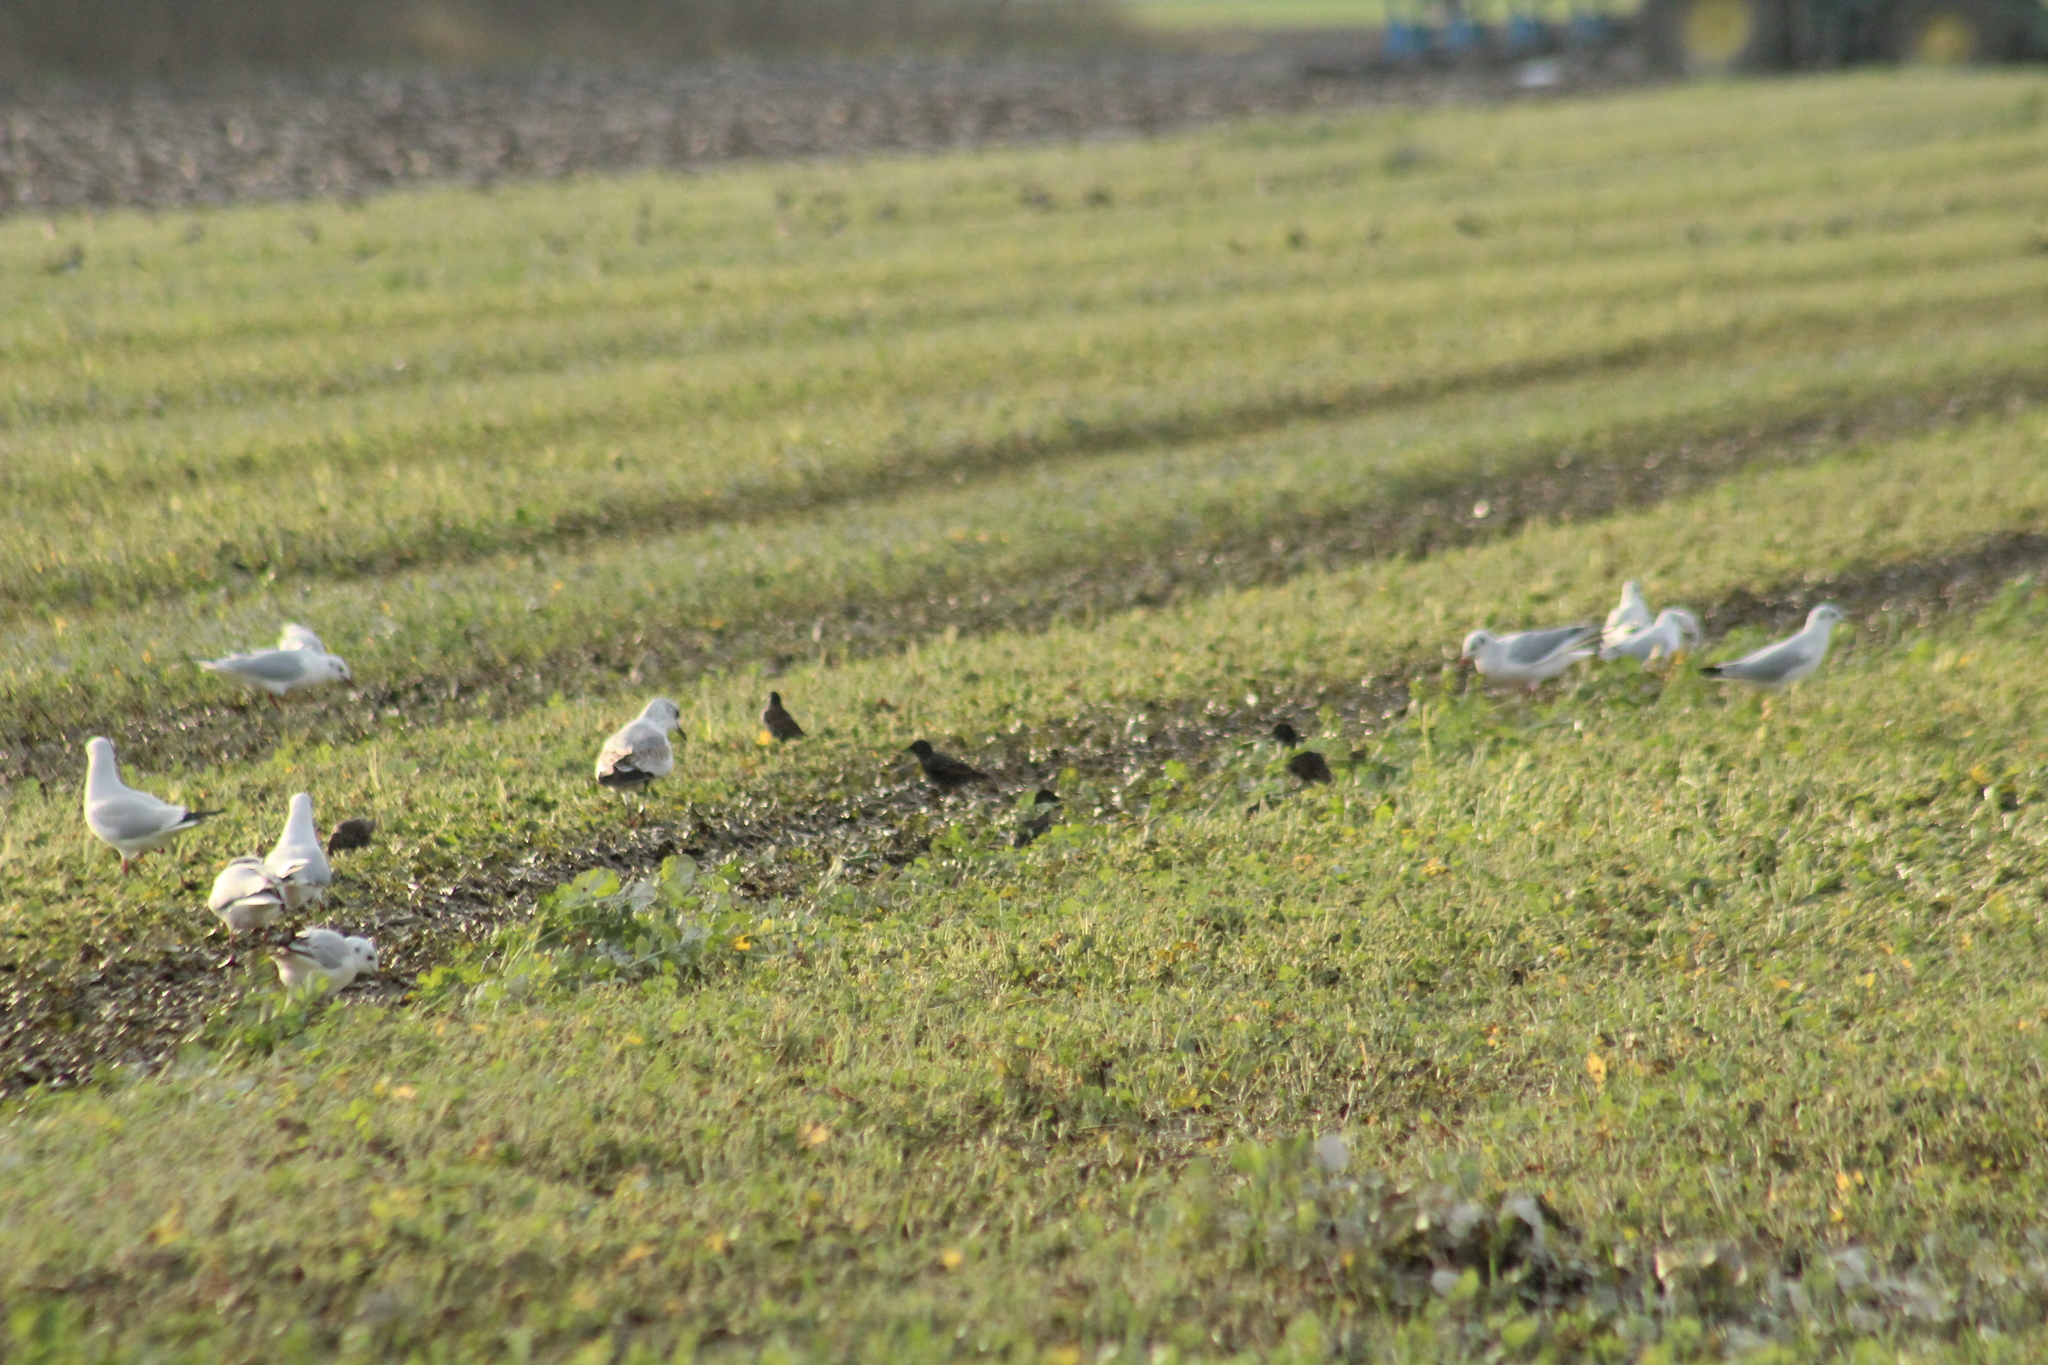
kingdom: Animalia
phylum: Chordata
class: Aves
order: Passeriformes
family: Sturnidae
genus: Sturnus
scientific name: Sturnus vulgaris
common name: Common starling
